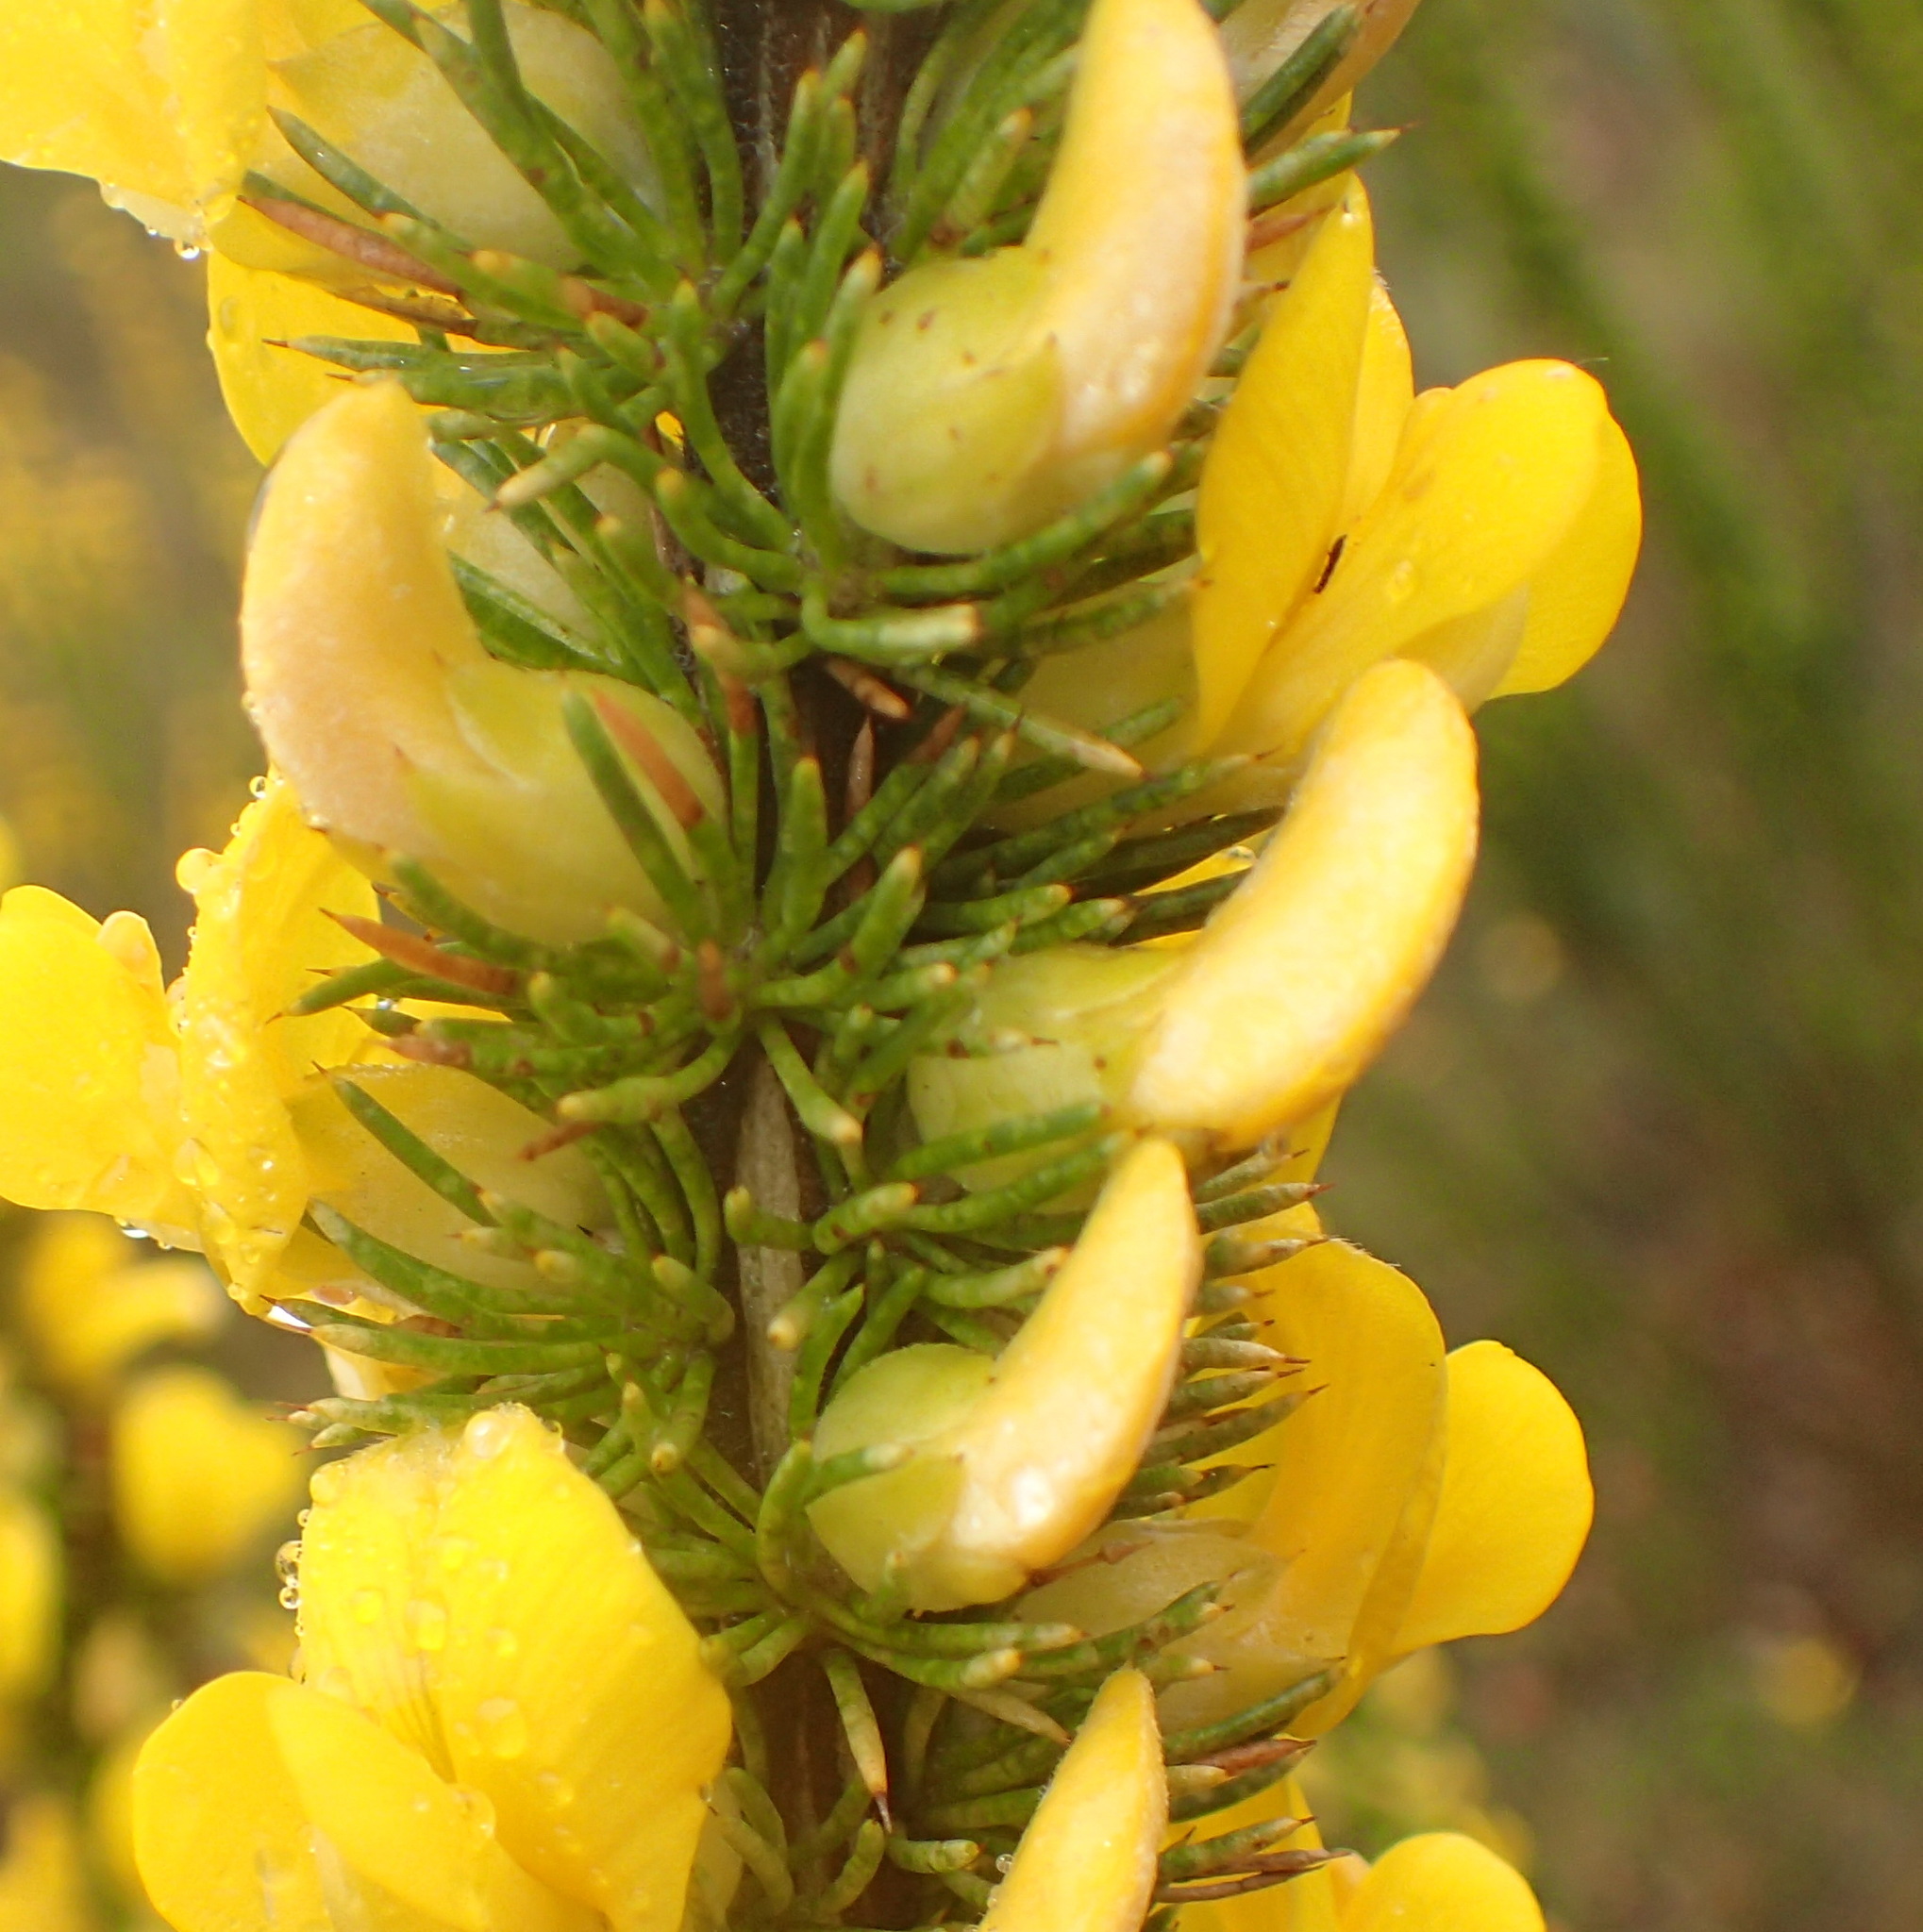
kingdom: Plantae
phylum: Tracheophyta
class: Magnoliopsida
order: Fabales
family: Fabaceae
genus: Aspalathus
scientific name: Aspalathus sceptrumaureum
